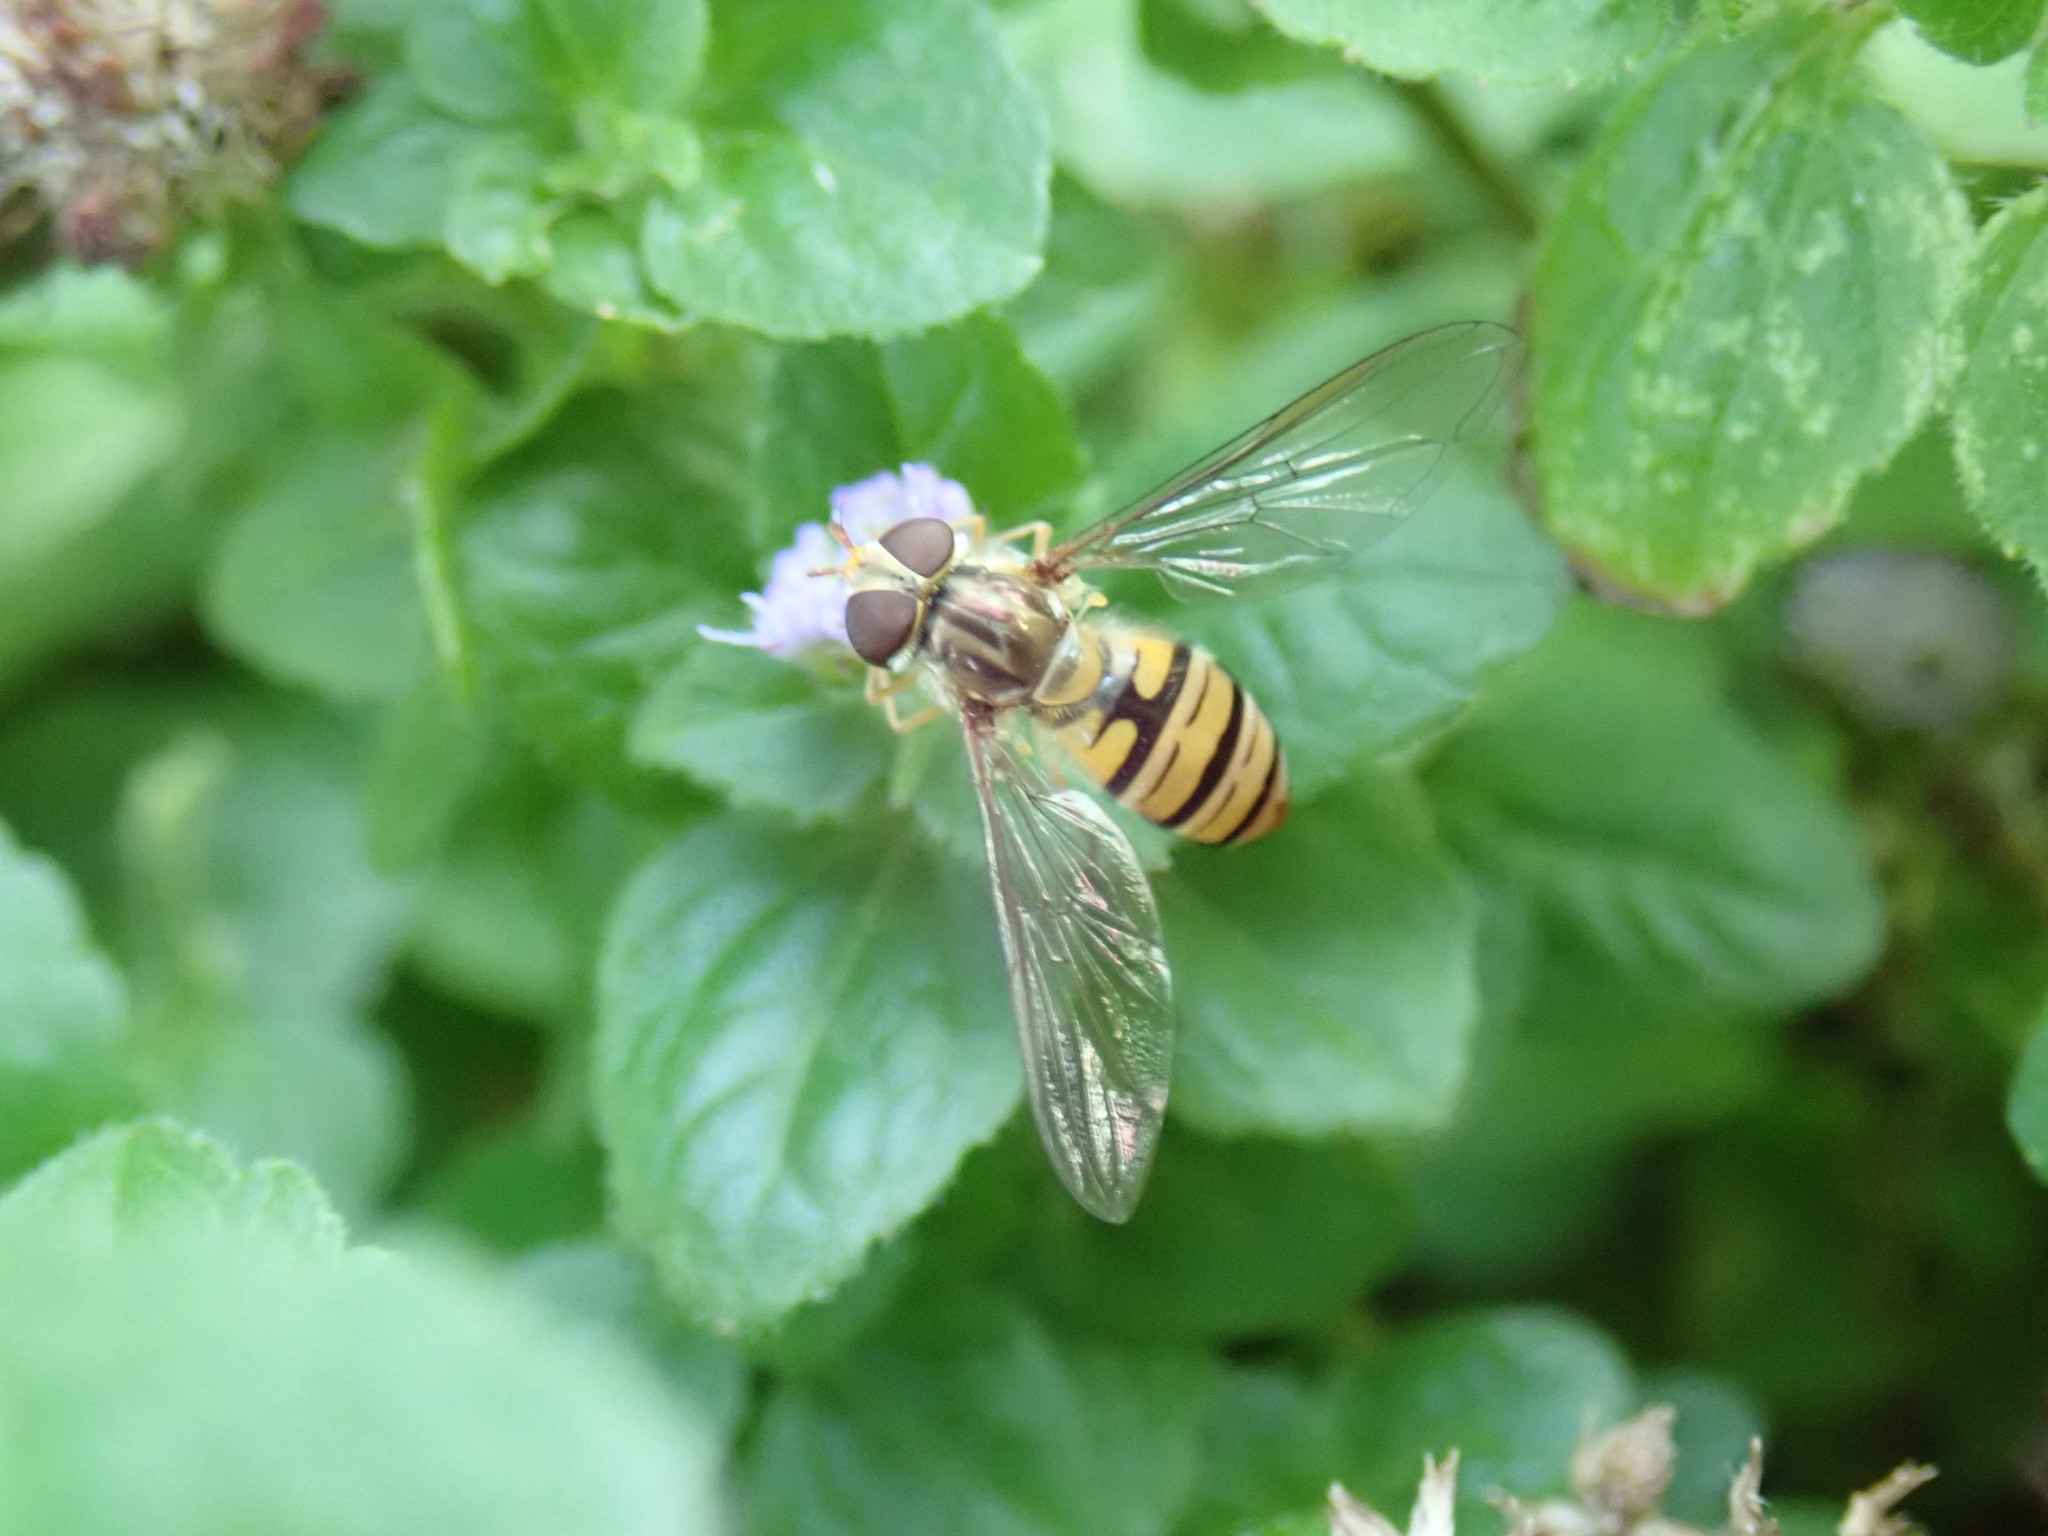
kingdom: Animalia
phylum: Arthropoda
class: Insecta
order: Diptera
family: Syrphidae
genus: Episyrphus
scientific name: Episyrphus balteatus
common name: Marmalade hoverfly
